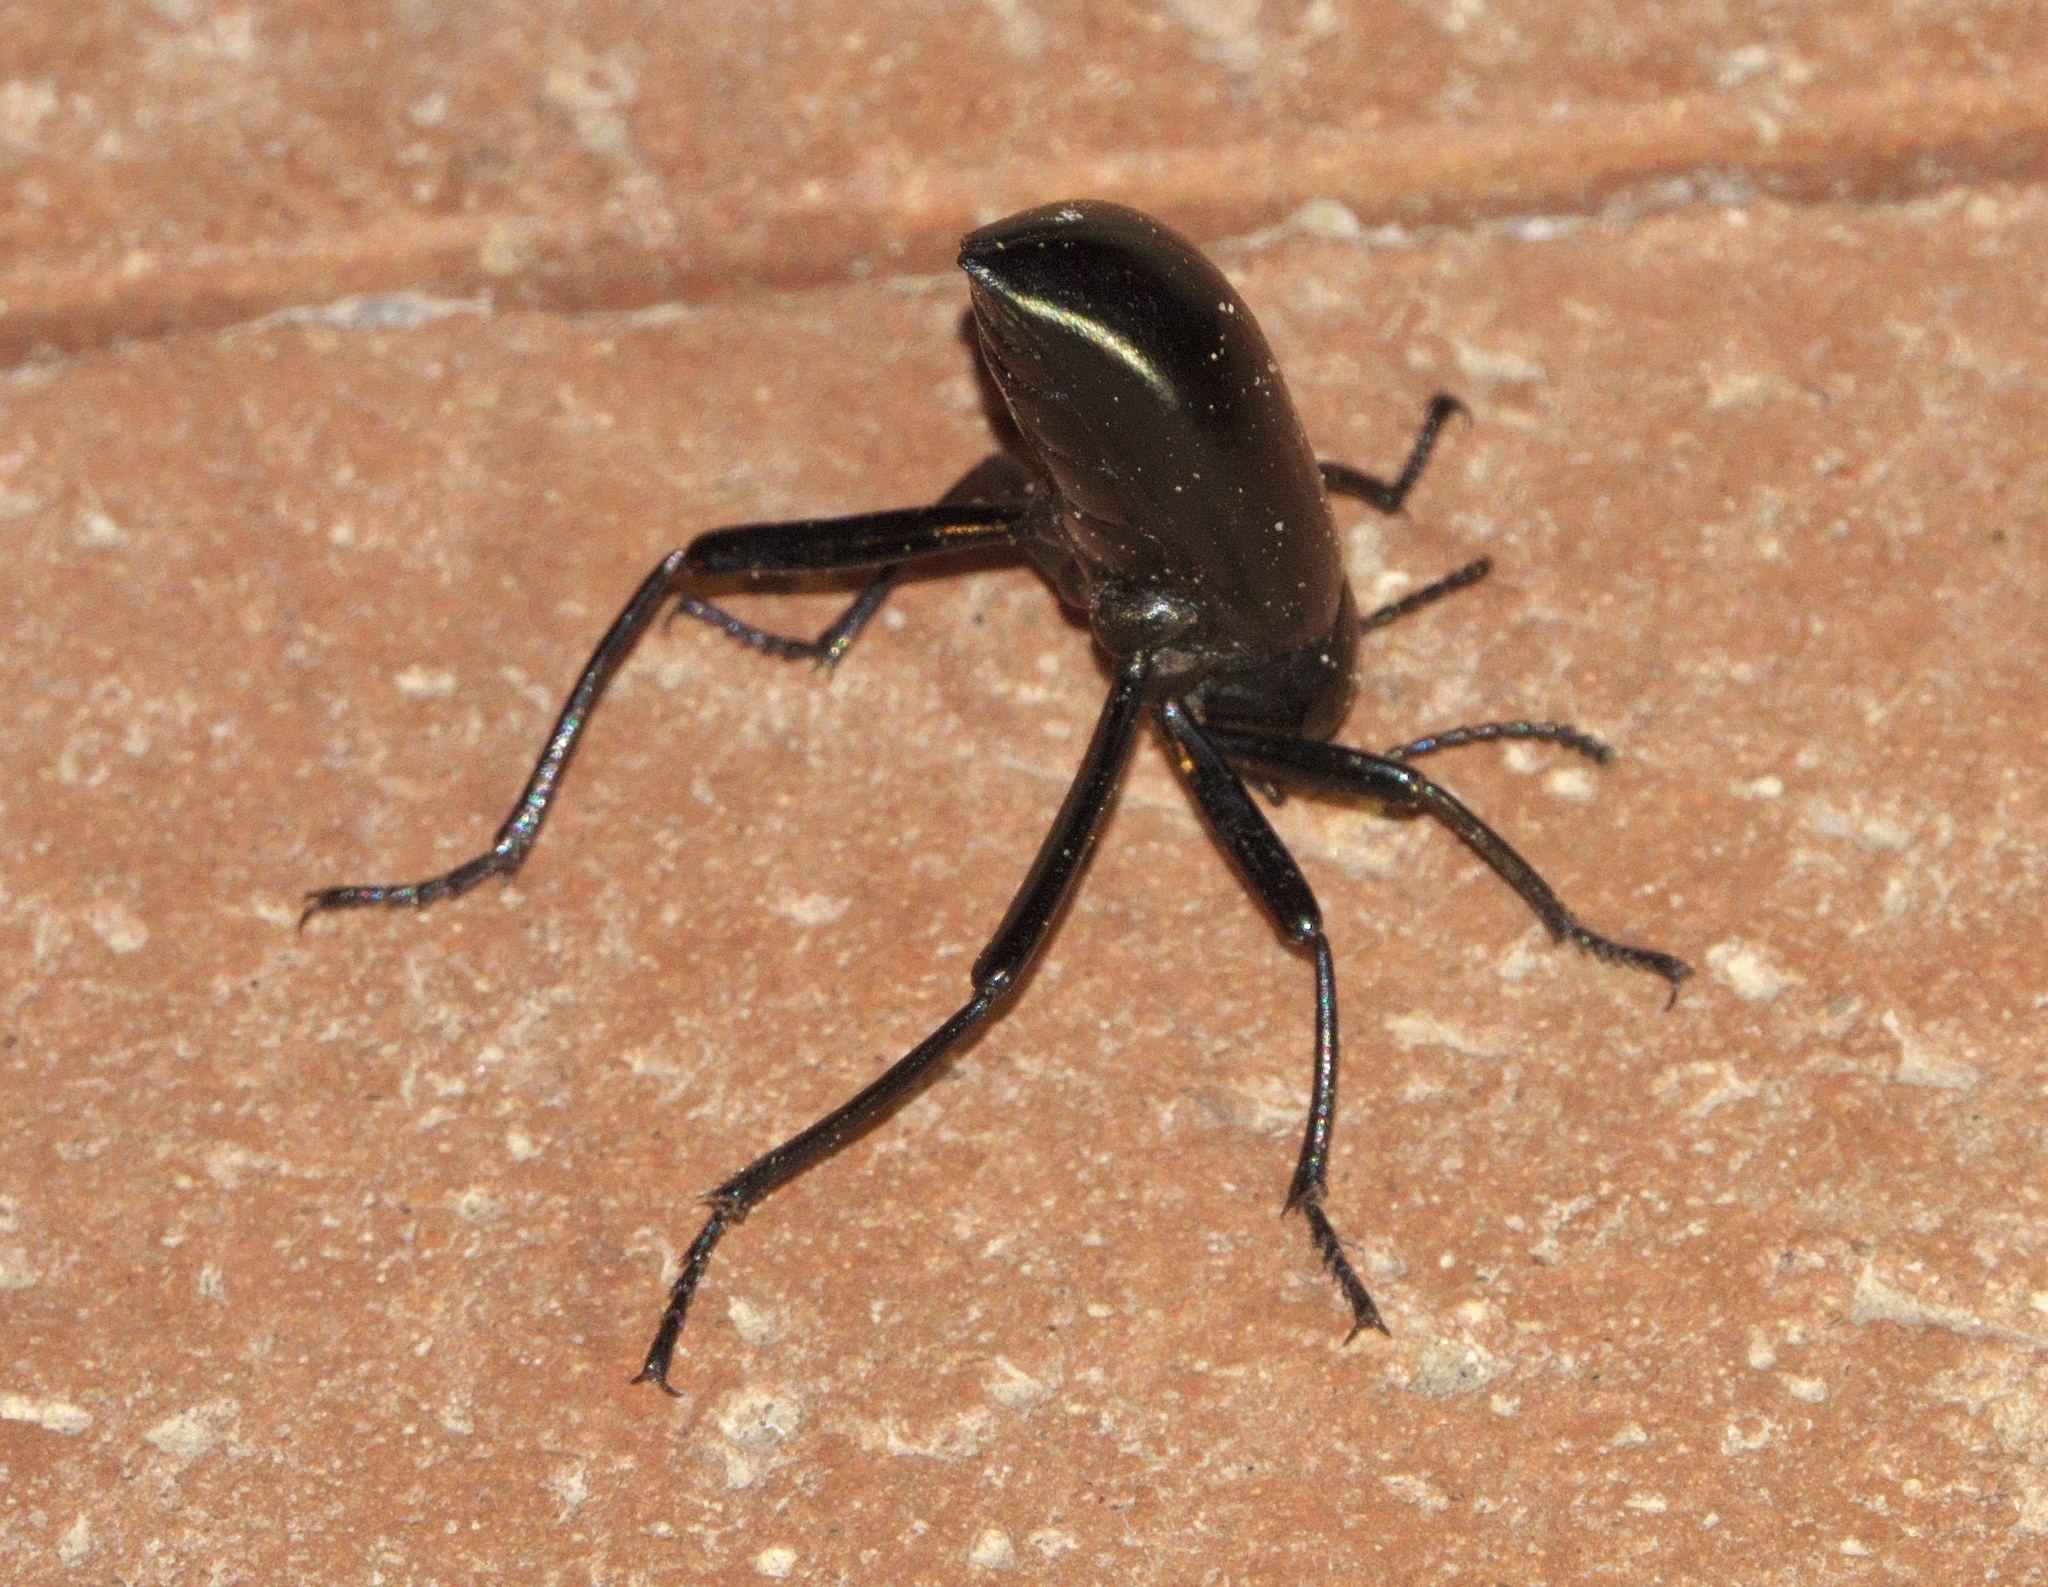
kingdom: Animalia
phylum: Arthropoda
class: Insecta
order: Coleoptera
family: Tenebrionidae
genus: Eleodes
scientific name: Eleodes longicollis
